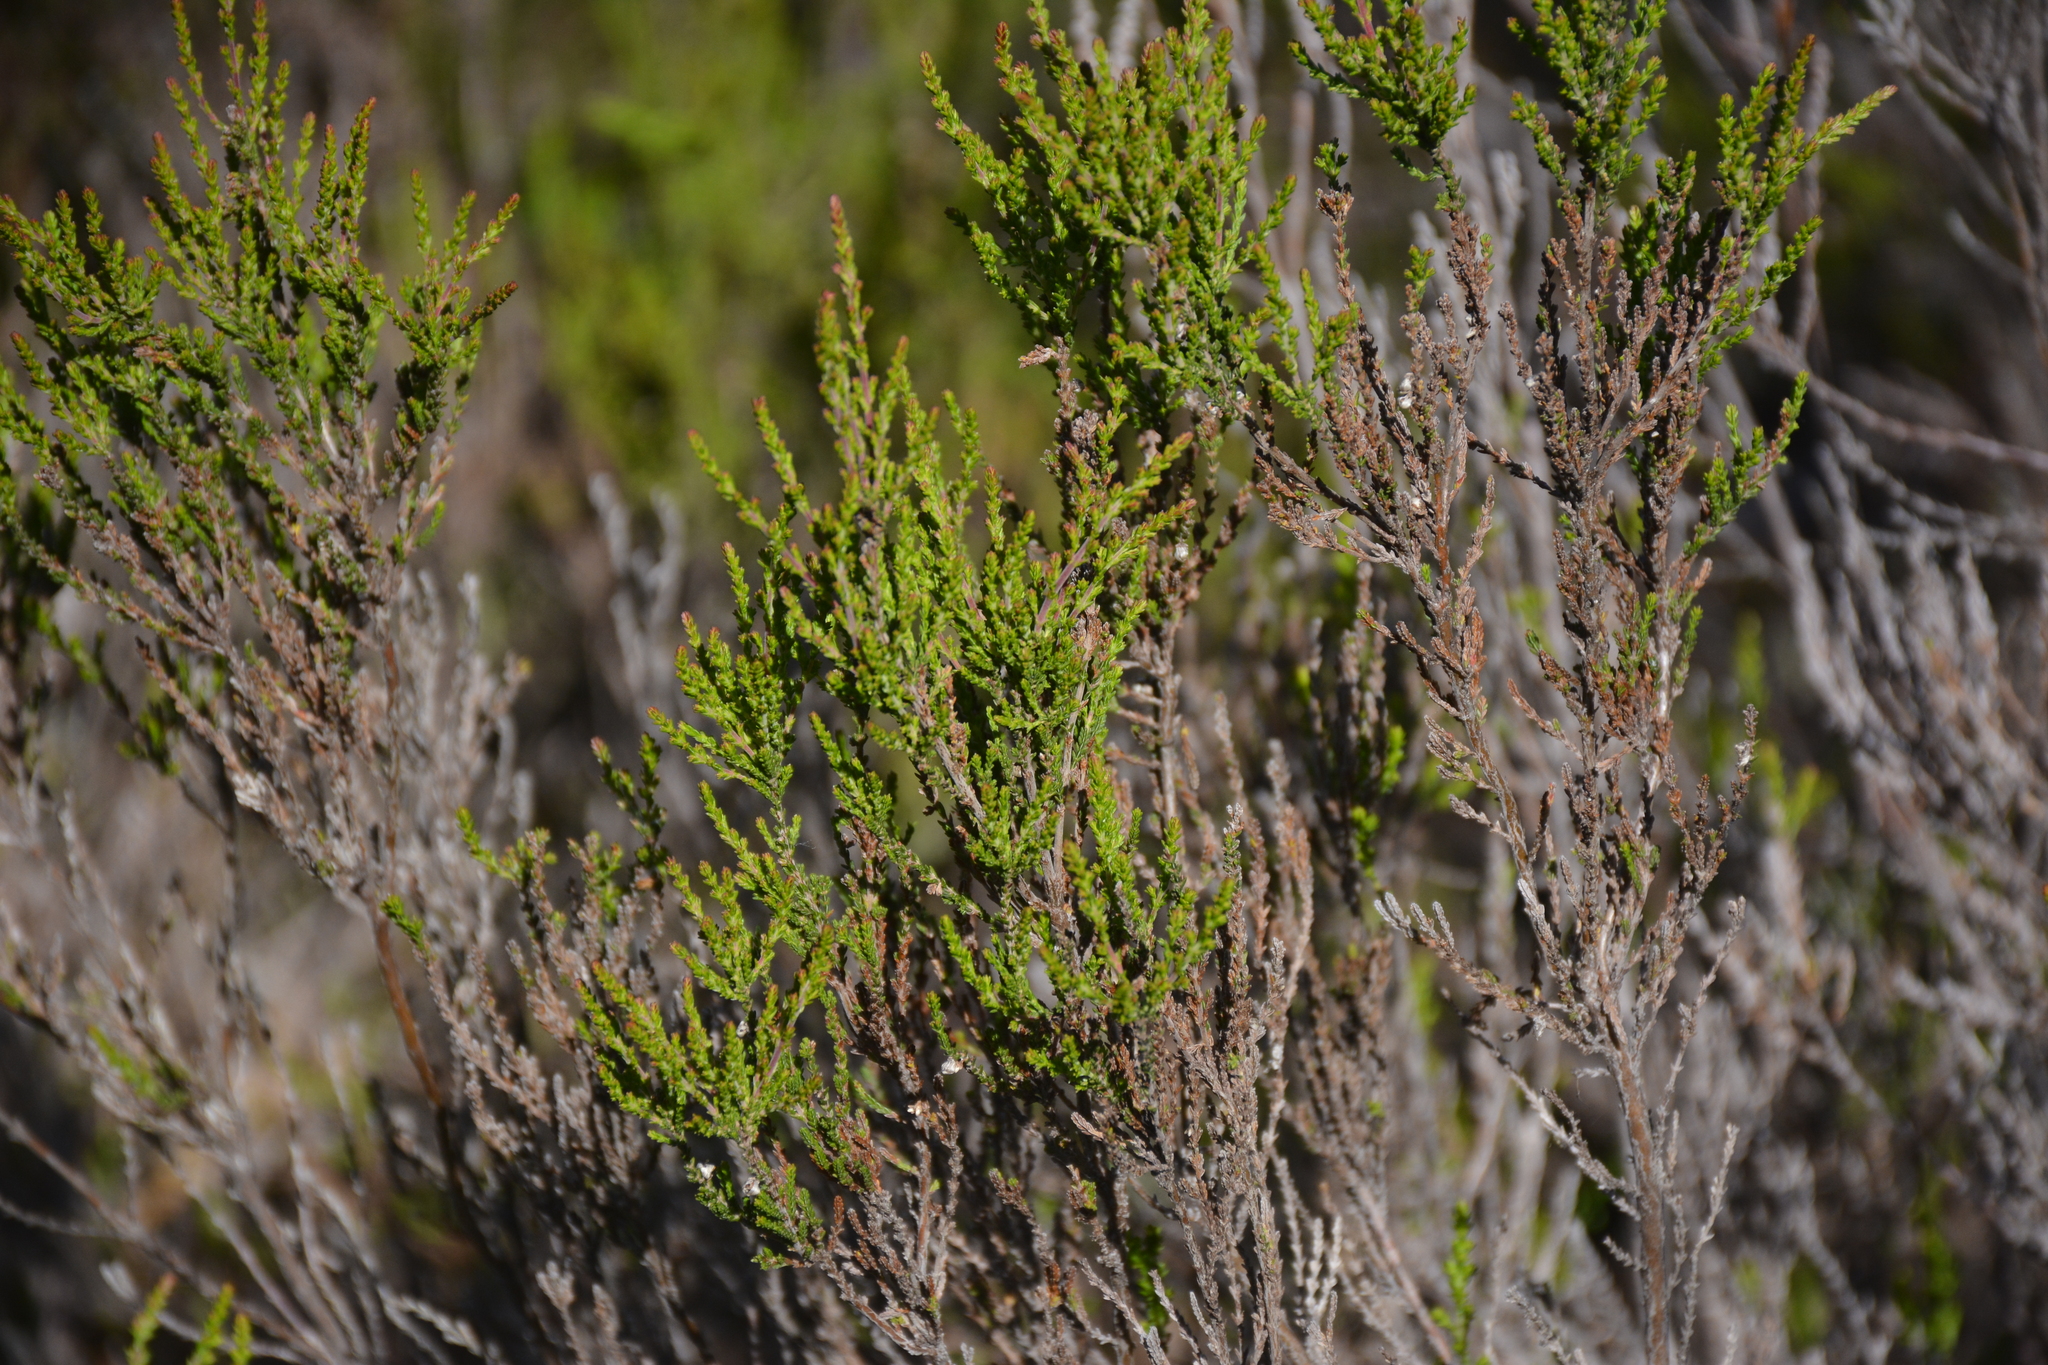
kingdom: Plantae
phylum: Tracheophyta
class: Magnoliopsida
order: Ericales
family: Ericaceae
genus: Calluna
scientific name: Calluna vulgaris
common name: Heather
